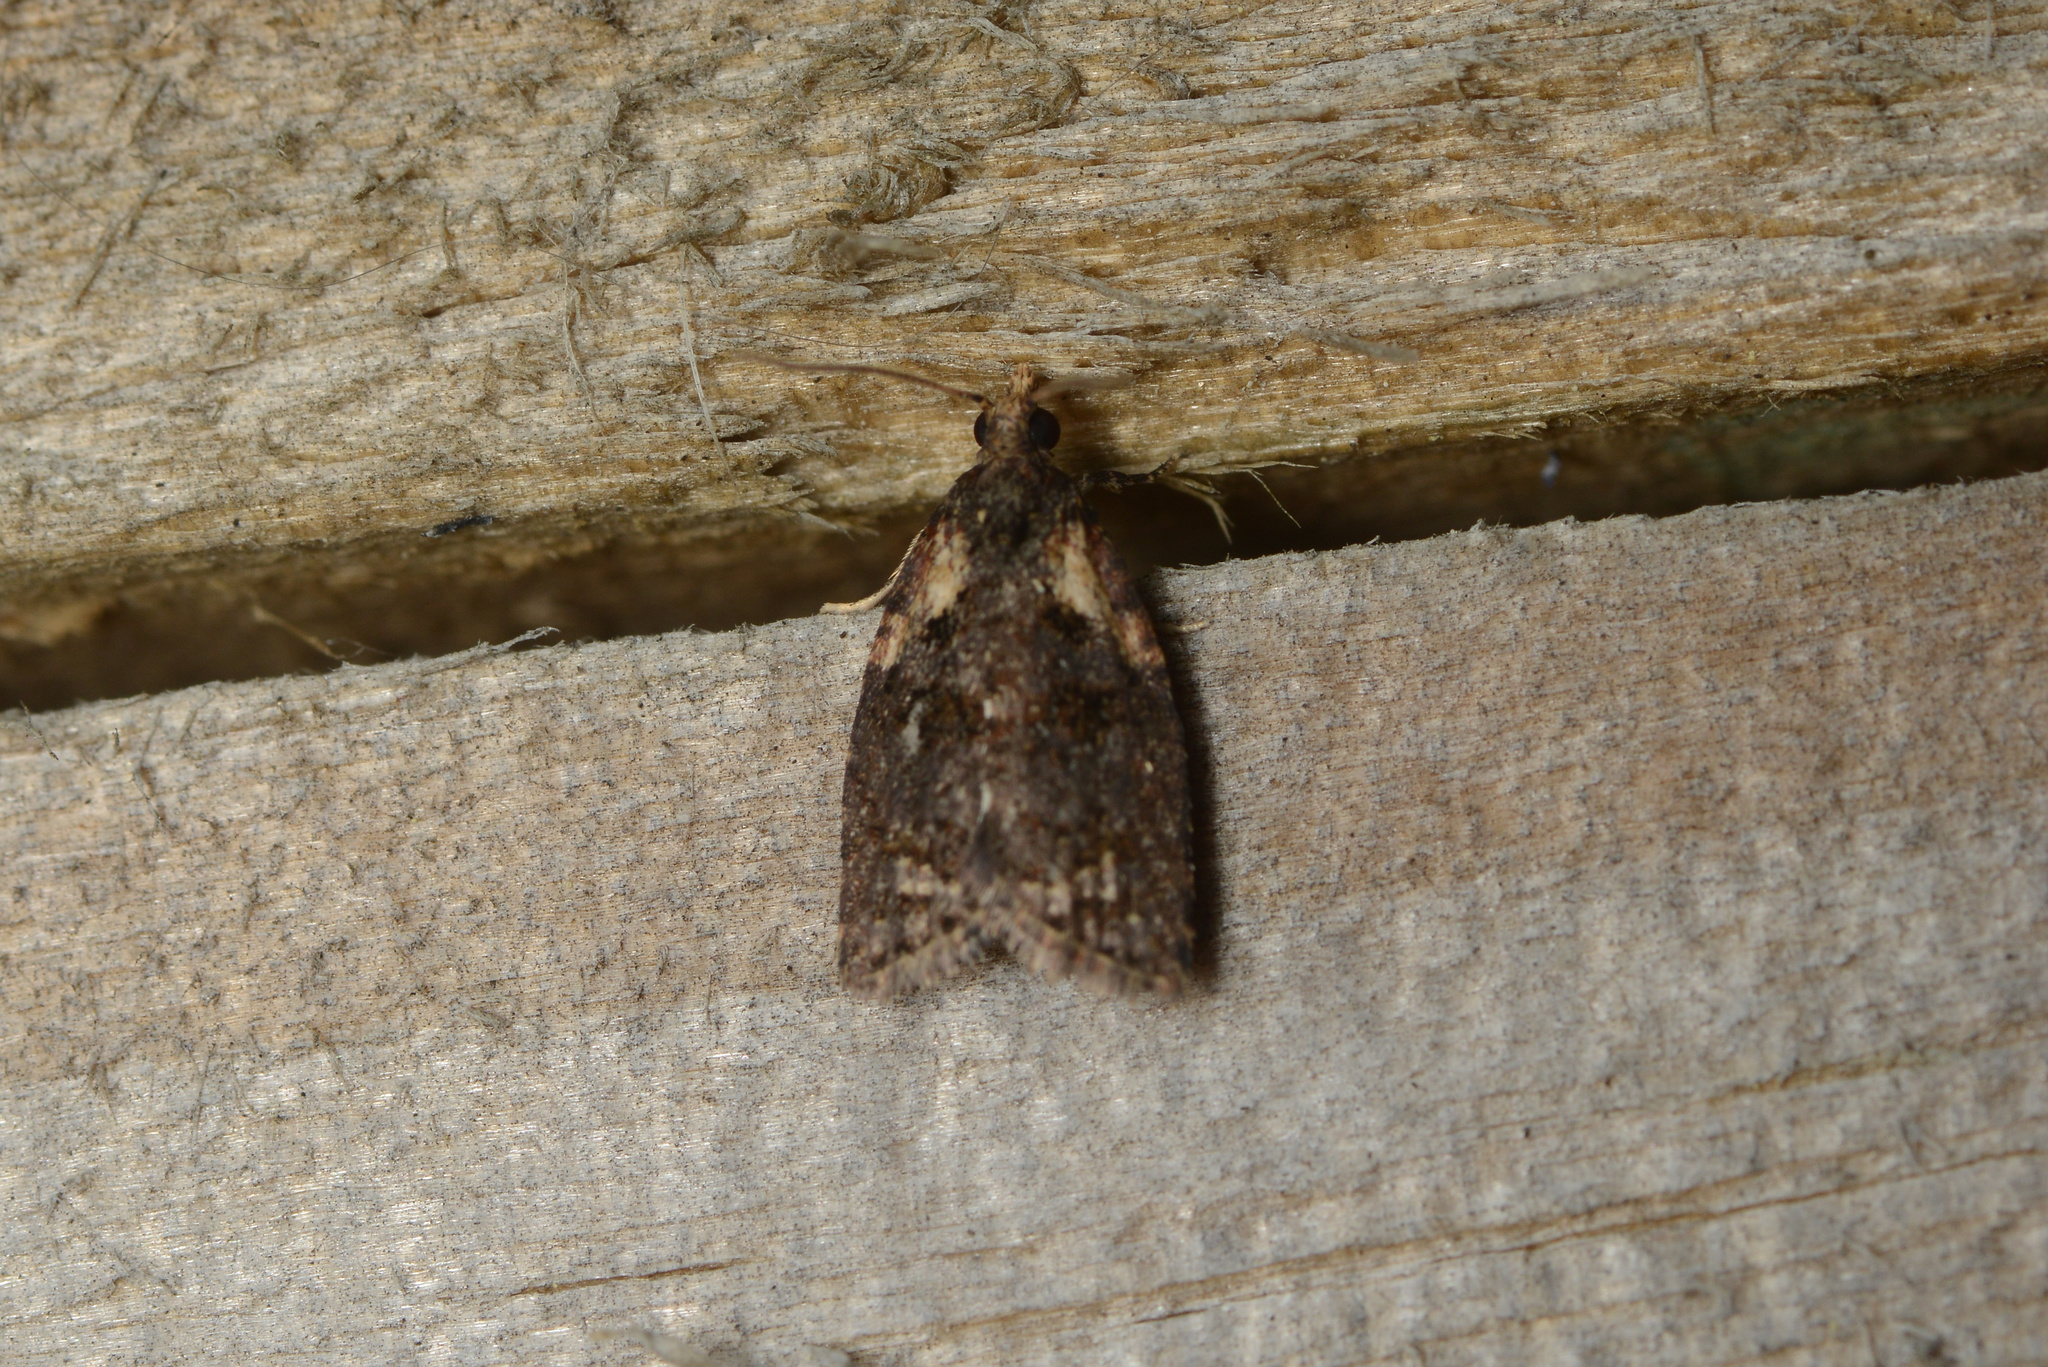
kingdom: Animalia
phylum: Arthropoda
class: Insecta
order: Lepidoptera
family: Tortricidae
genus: Capua
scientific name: Capua intractana
